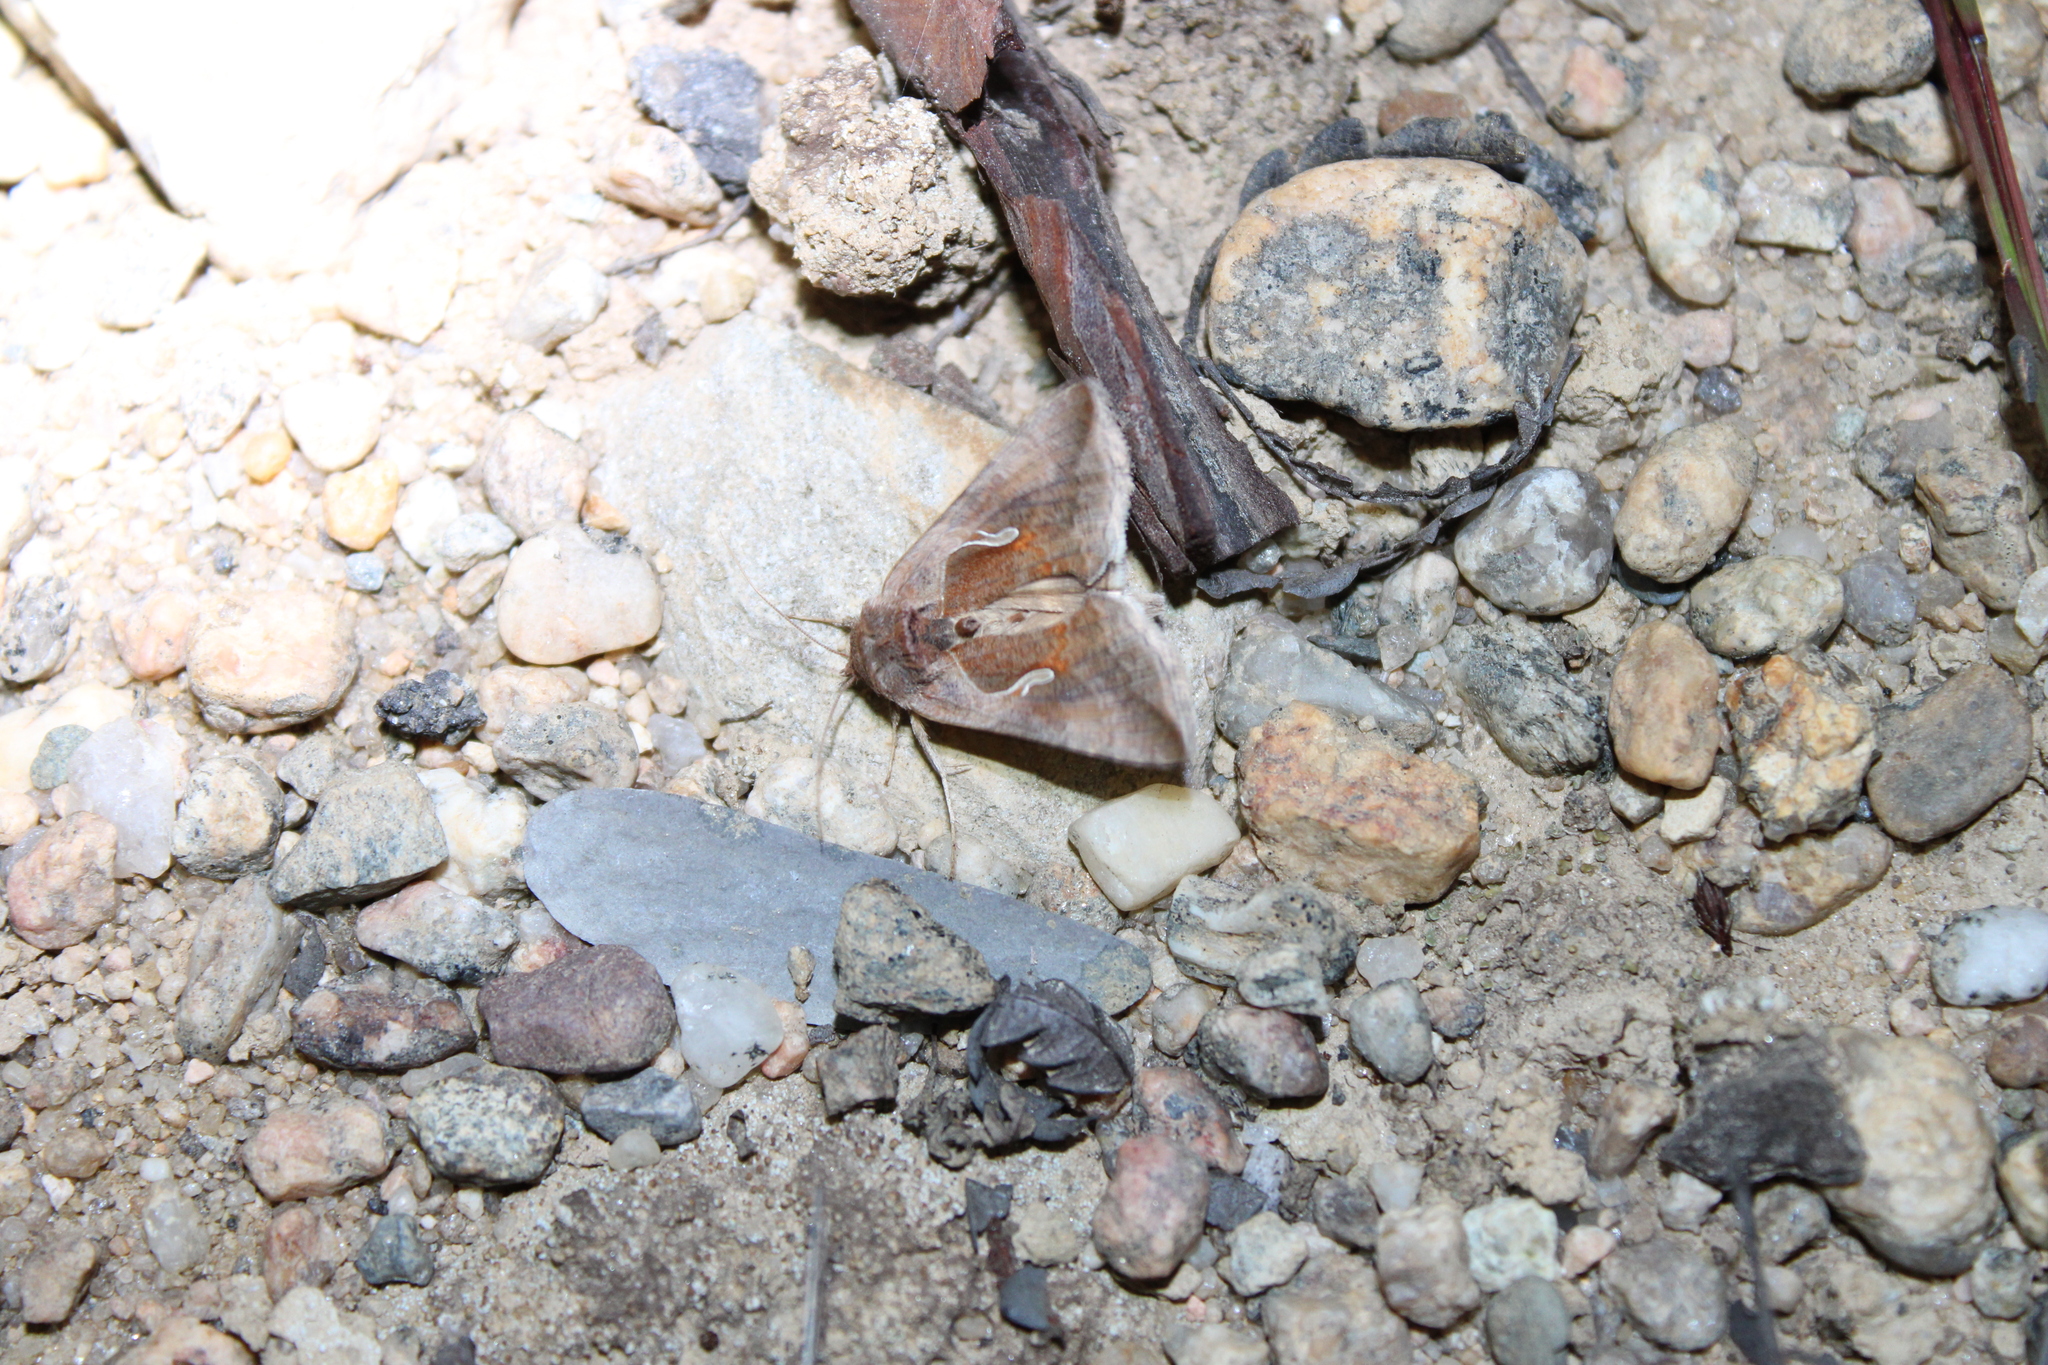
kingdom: Animalia
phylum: Arthropoda
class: Insecta
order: Lepidoptera
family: Noctuidae
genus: Anagrapha
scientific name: Anagrapha falcifera
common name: Celery looper
